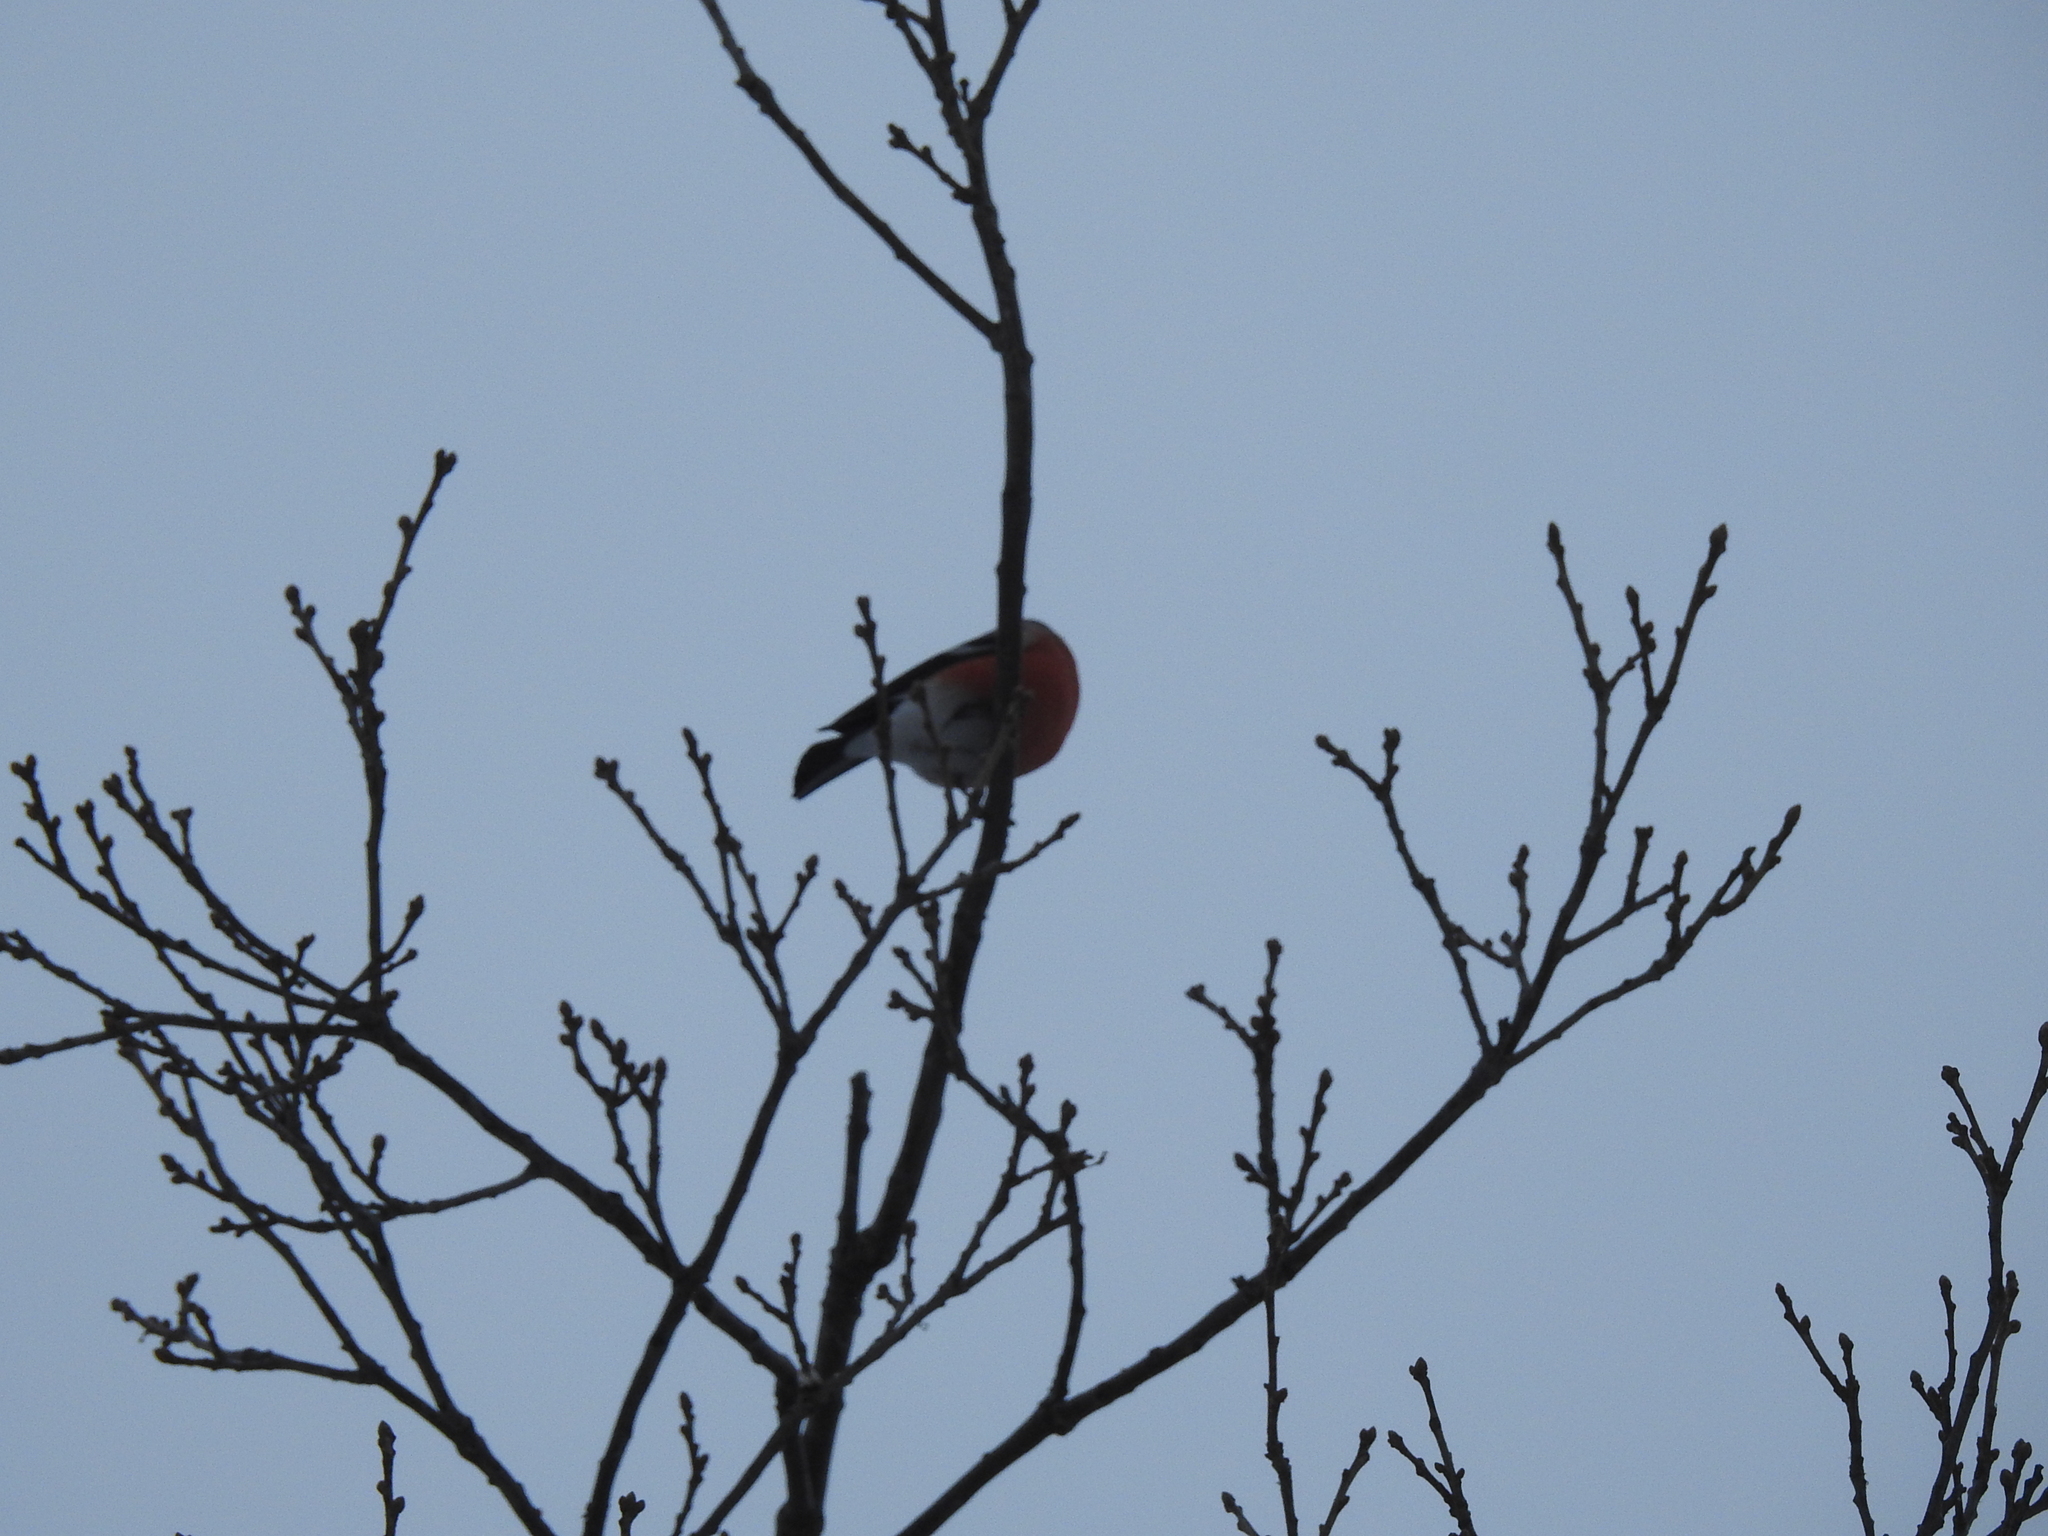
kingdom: Animalia
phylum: Chordata
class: Aves
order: Passeriformes
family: Fringillidae
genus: Pyrrhula
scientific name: Pyrrhula pyrrhula
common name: Eurasian bullfinch
